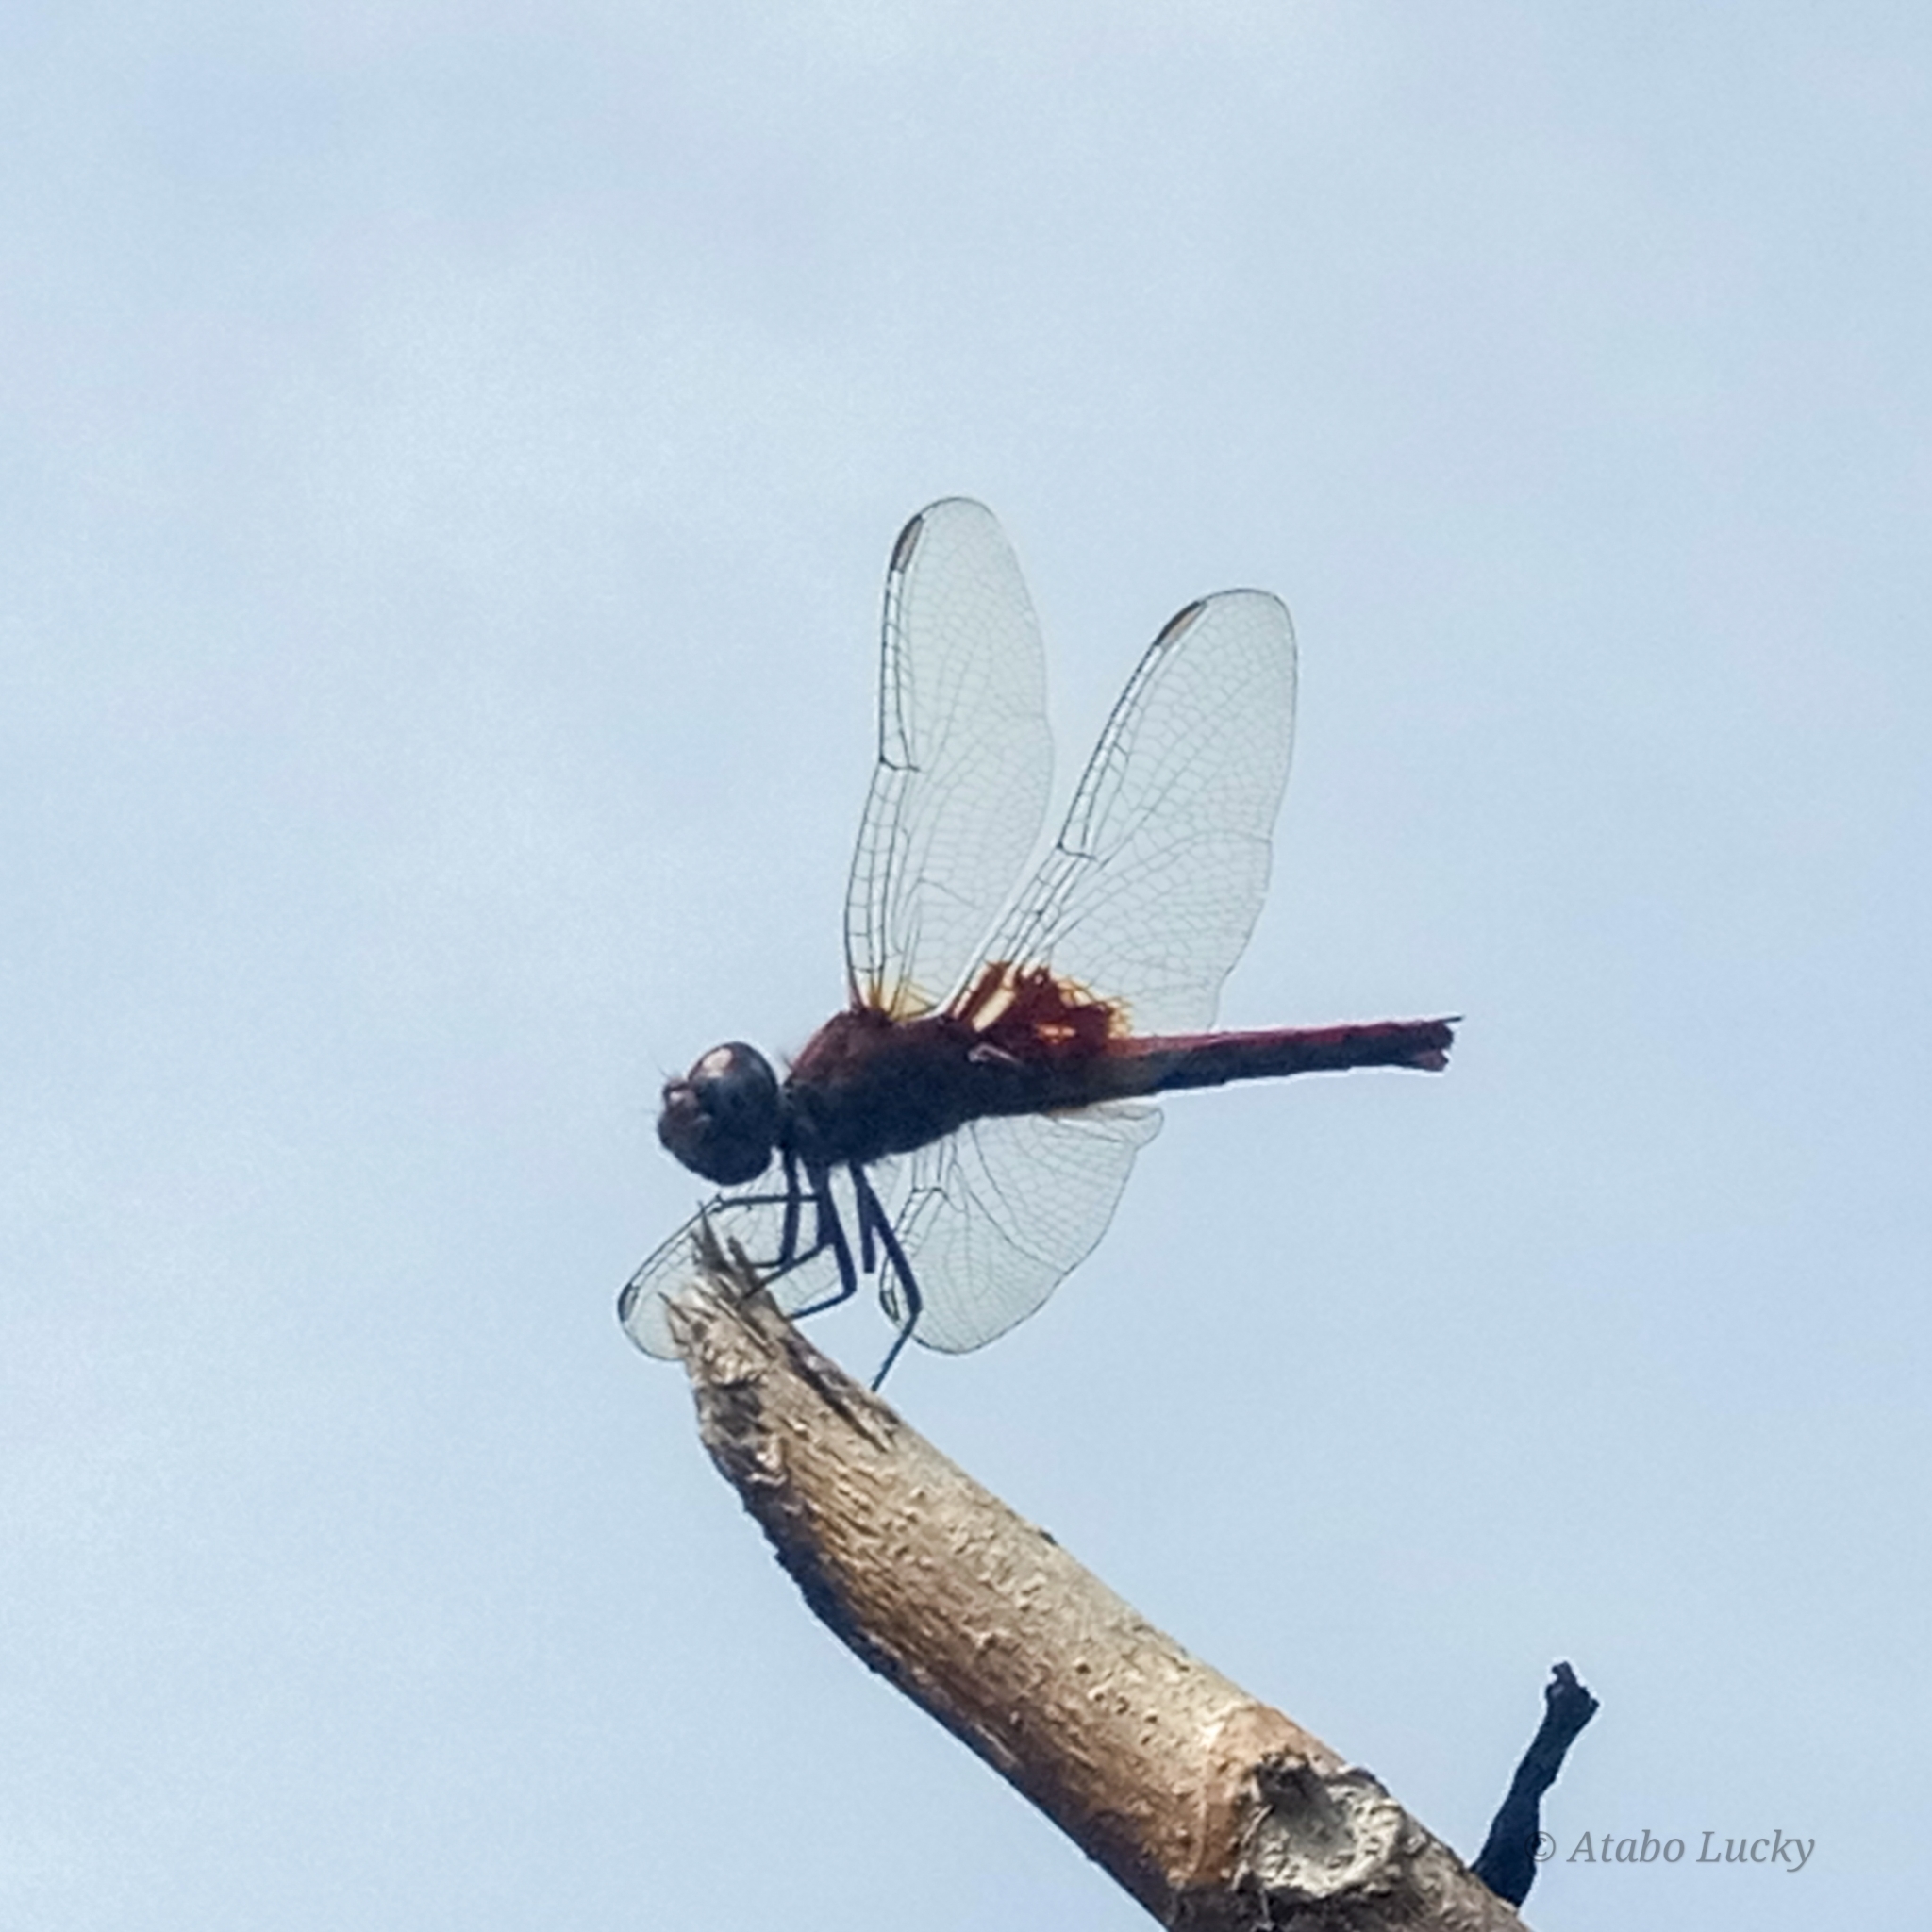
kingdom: Animalia
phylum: Arthropoda
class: Insecta
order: Odonata
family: Libellulidae
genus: Urothemis
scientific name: Urothemis assignata
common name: Red basker
